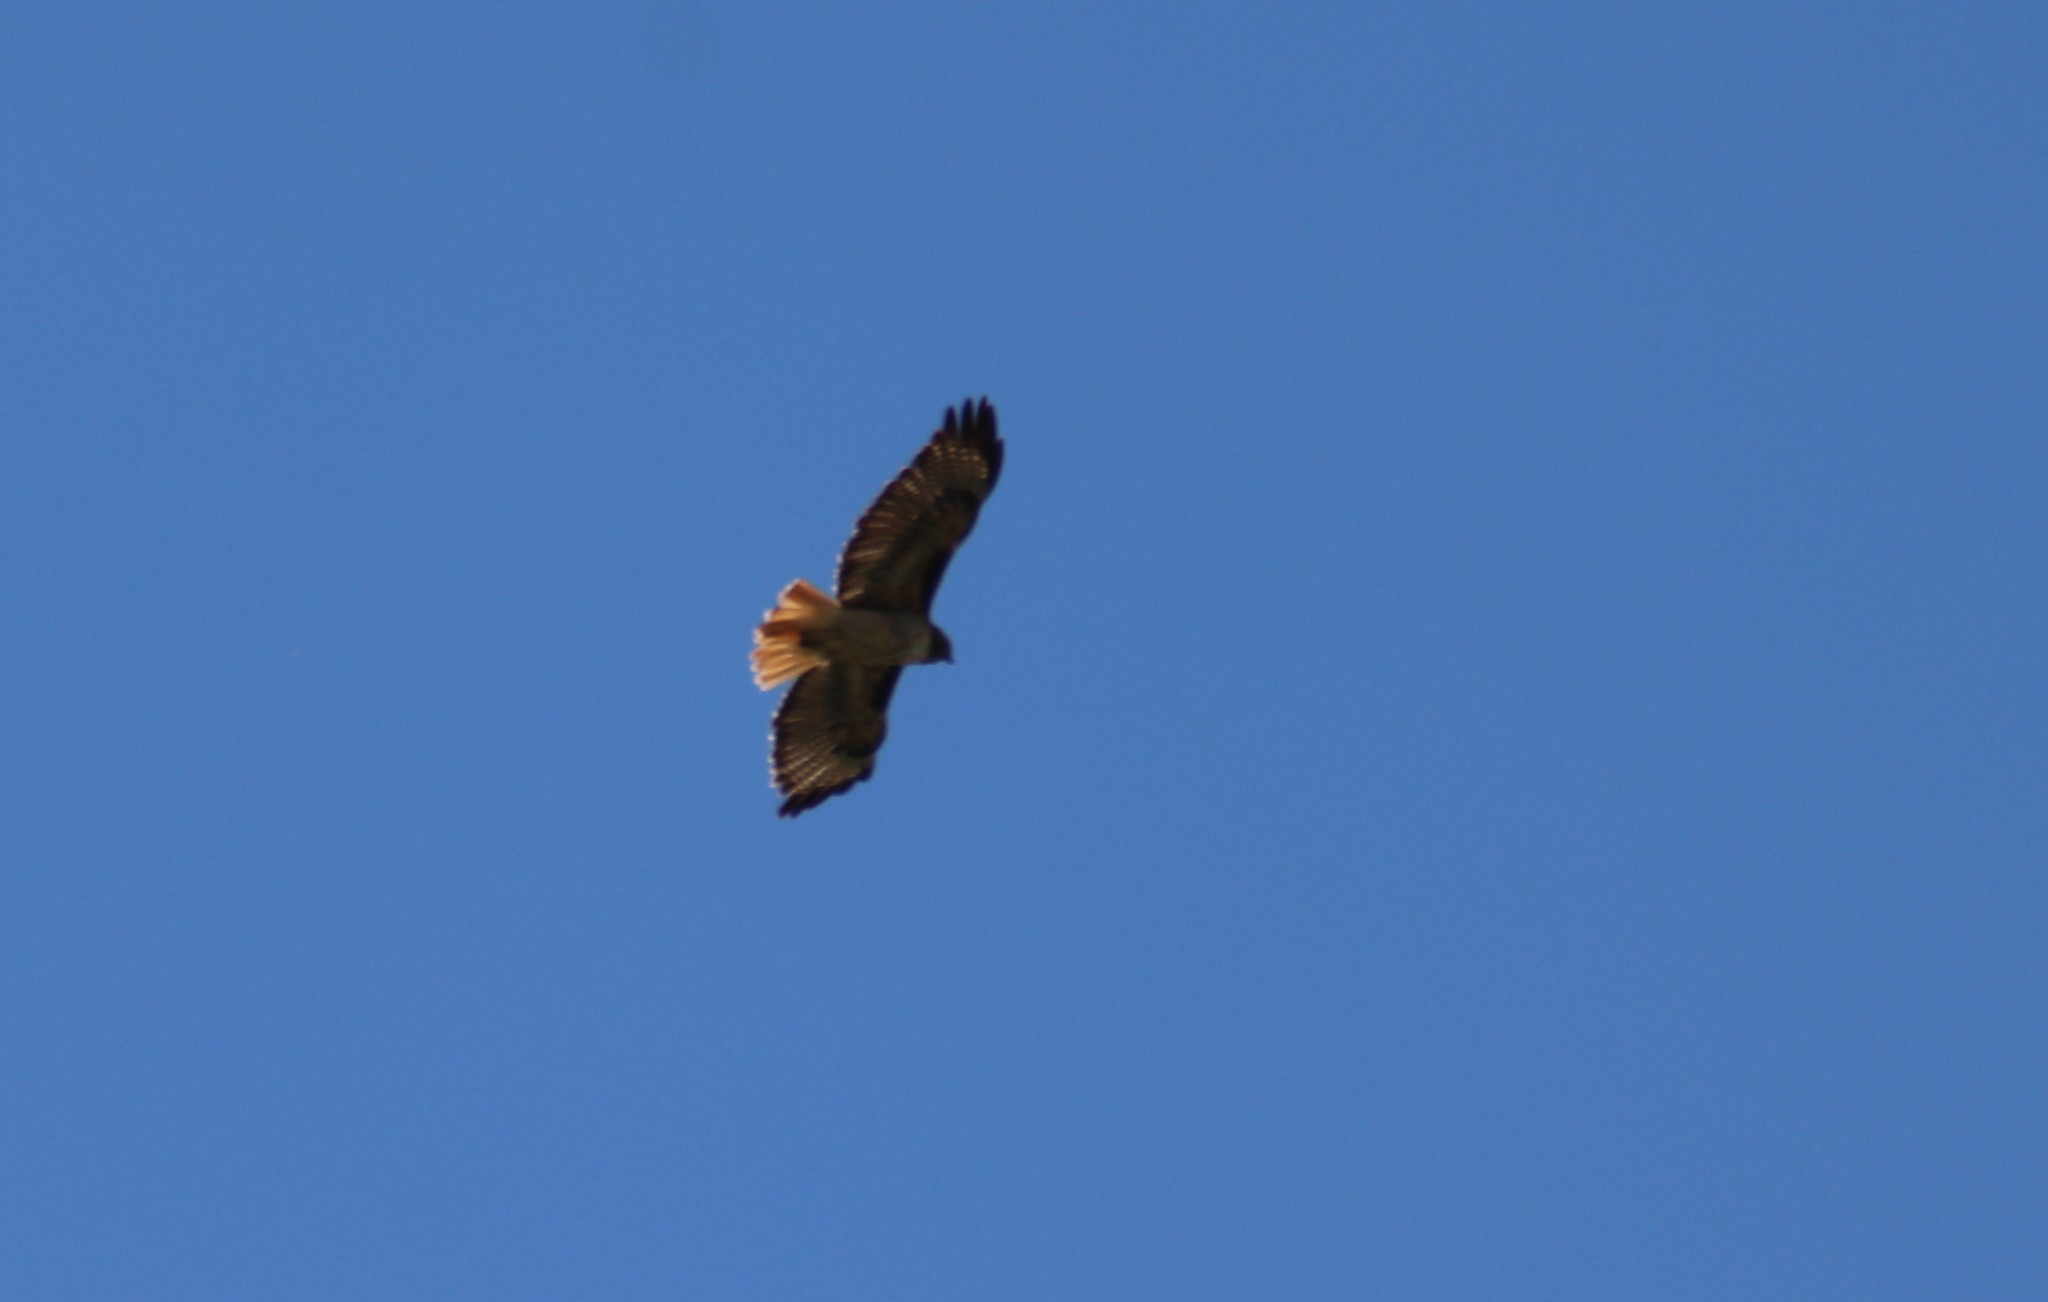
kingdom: Animalia
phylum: Chordata
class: Aves
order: Accipitriformes
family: Accipitridae
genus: Buteo
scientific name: Buteo jamaicensis
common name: Red-tailed hawk
